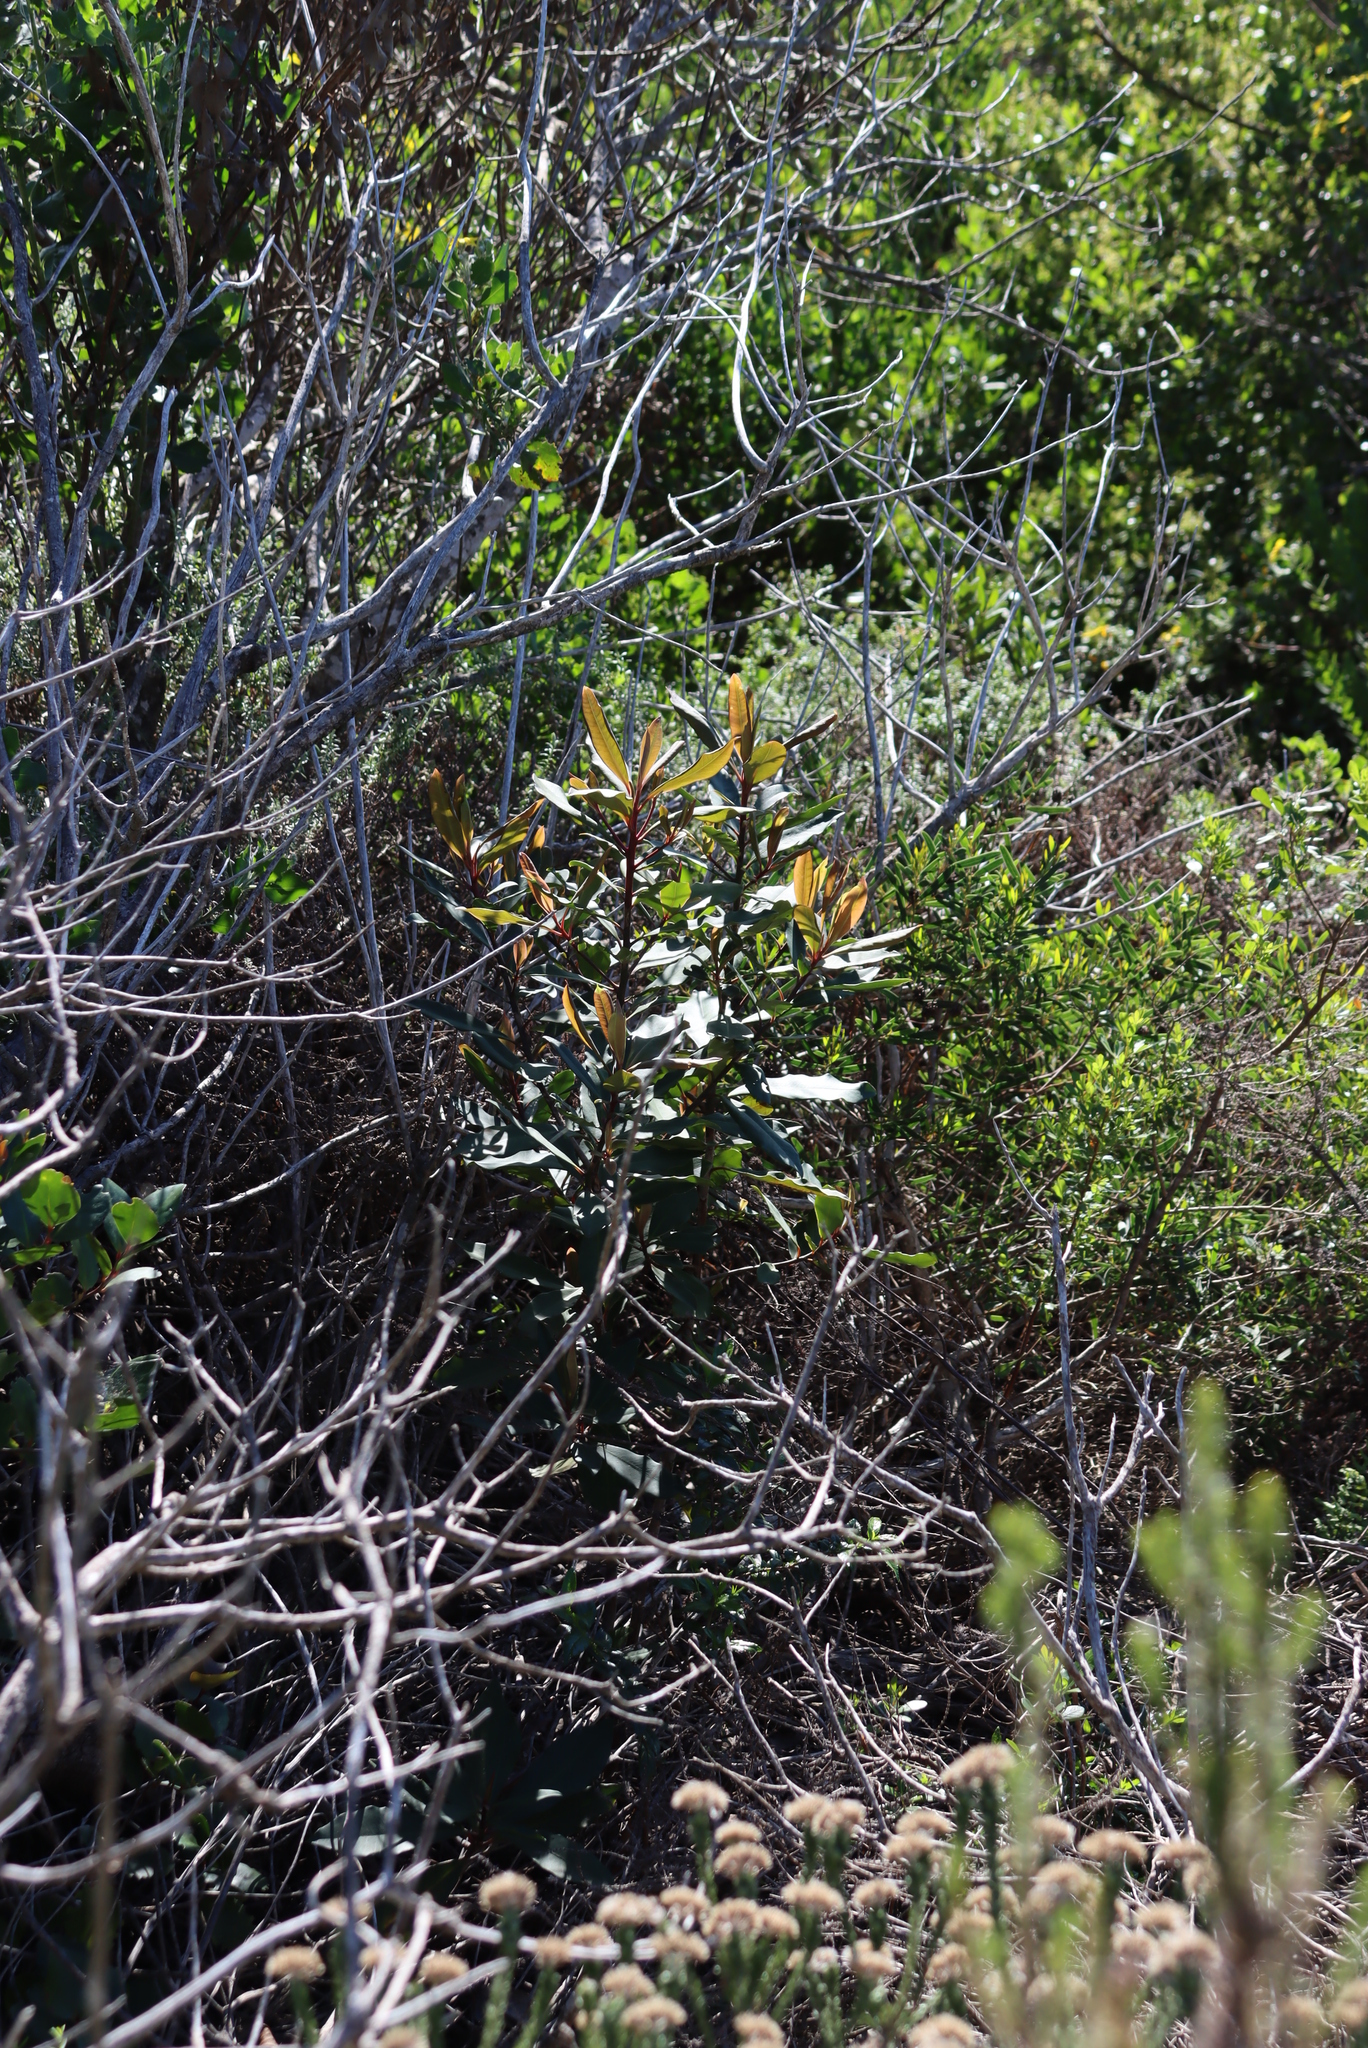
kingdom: Plantae
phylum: Tracheophyta
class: Magnoliopsida
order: Ericales
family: Primulaceae
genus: Myrsine
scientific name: Myrsine melanophloeos
